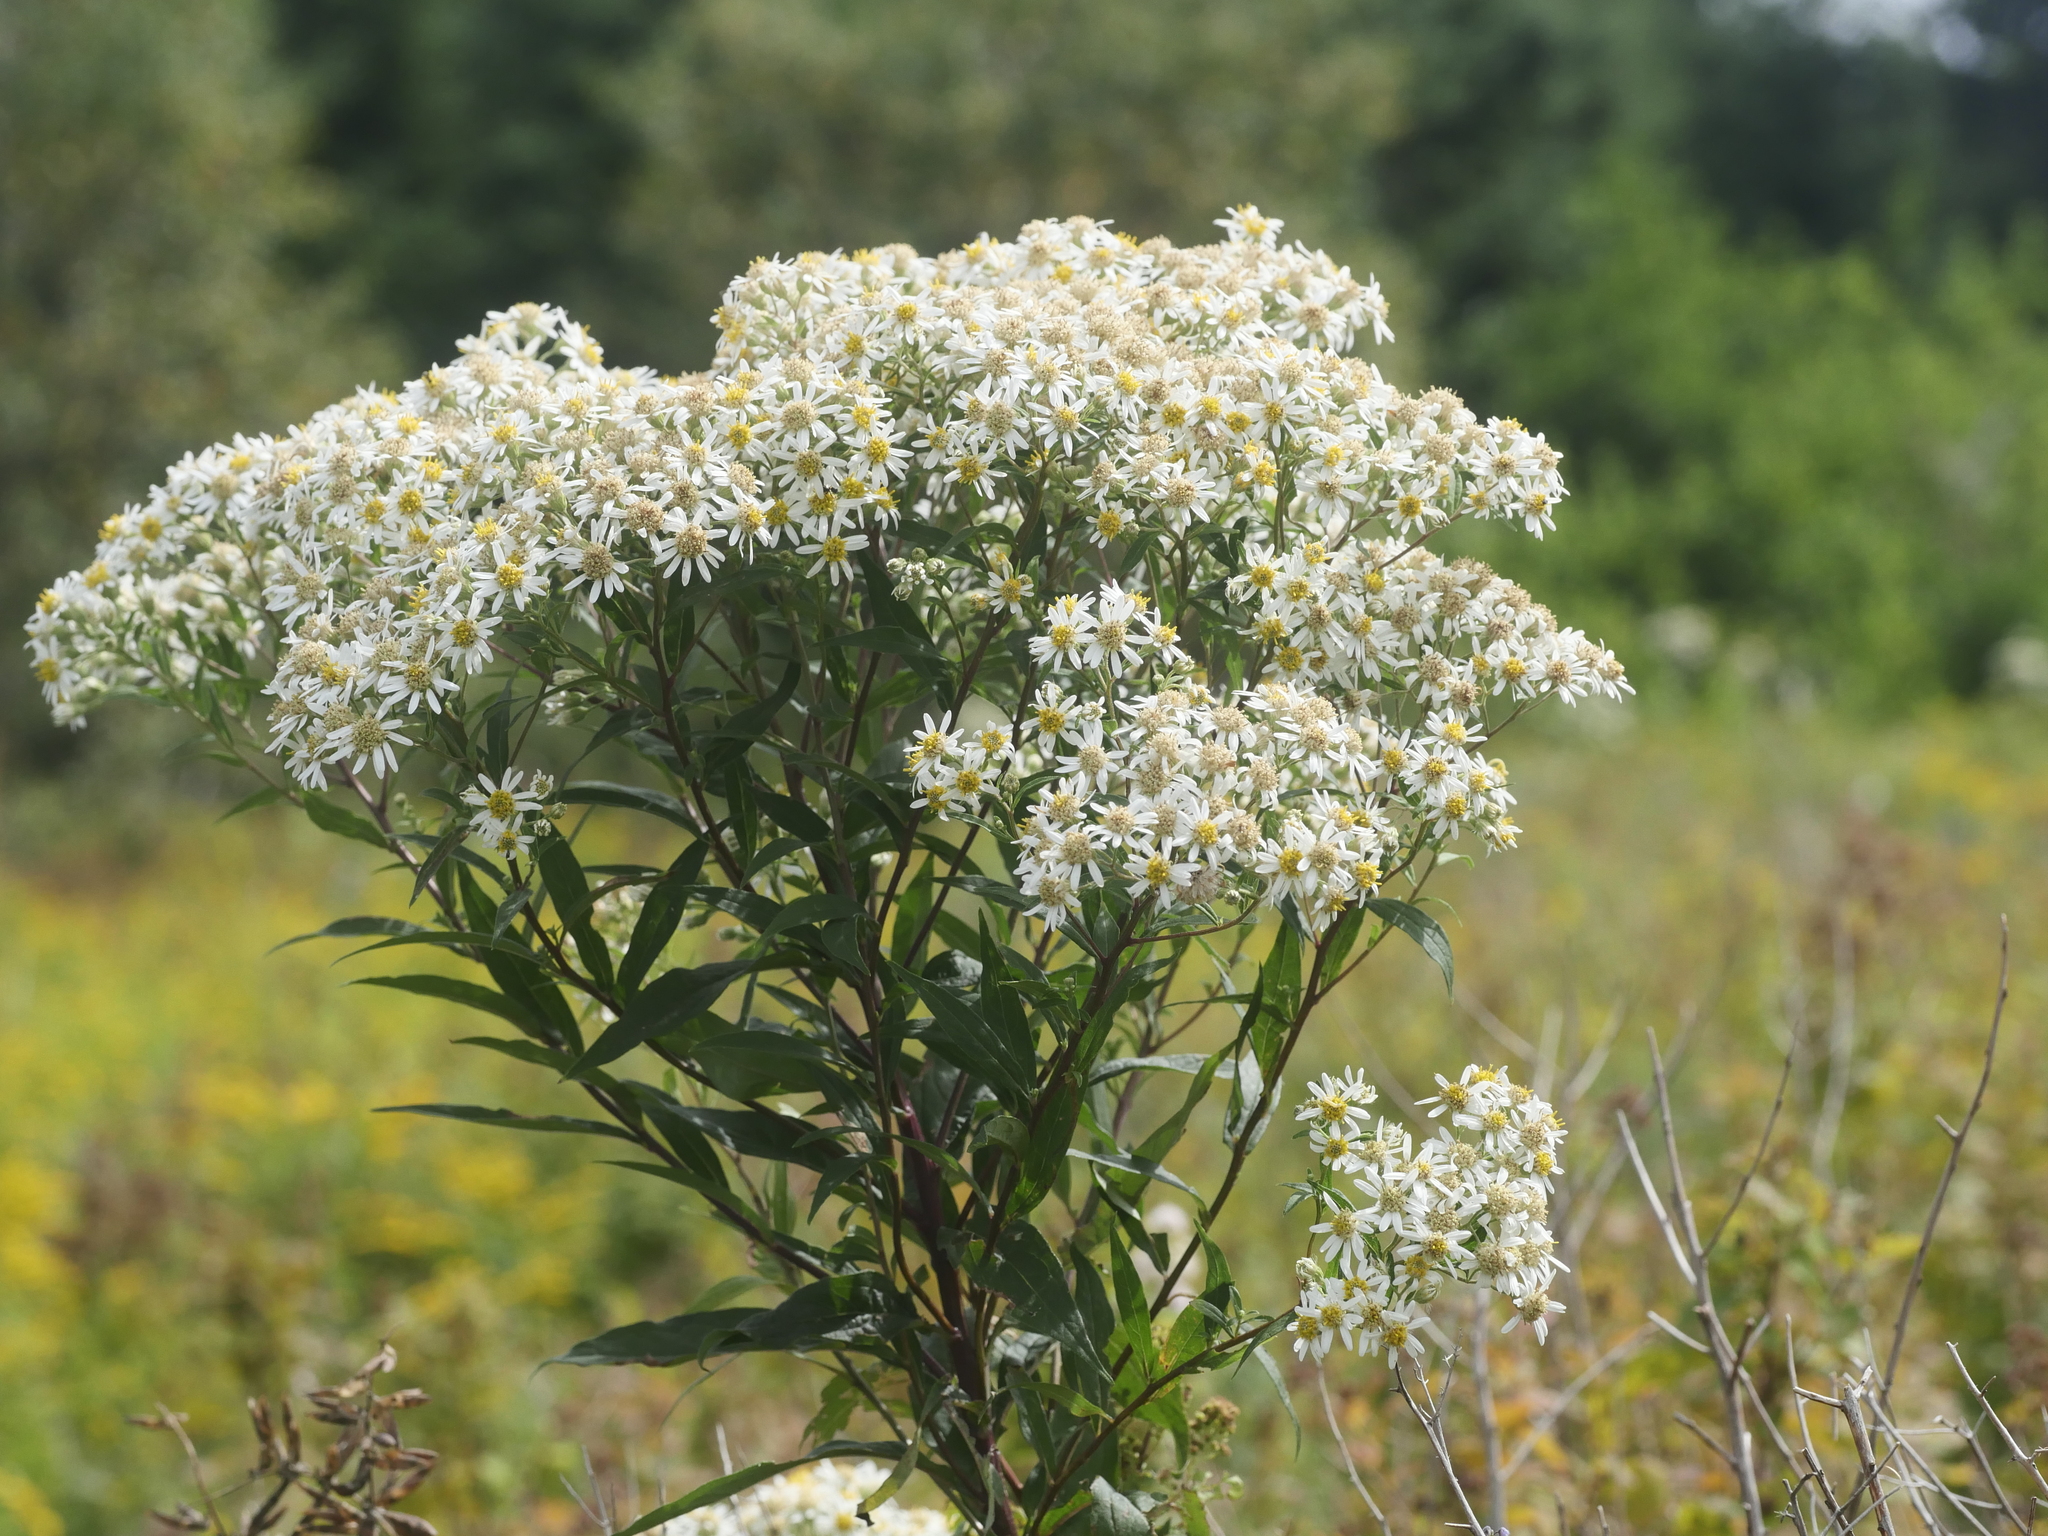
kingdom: Plantae
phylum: Tracheophyta
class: Magnoliopsida
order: Asterales
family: Asteraceae
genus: Doellingeria
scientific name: Doellingeria umbellata
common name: Flat-top white aster
